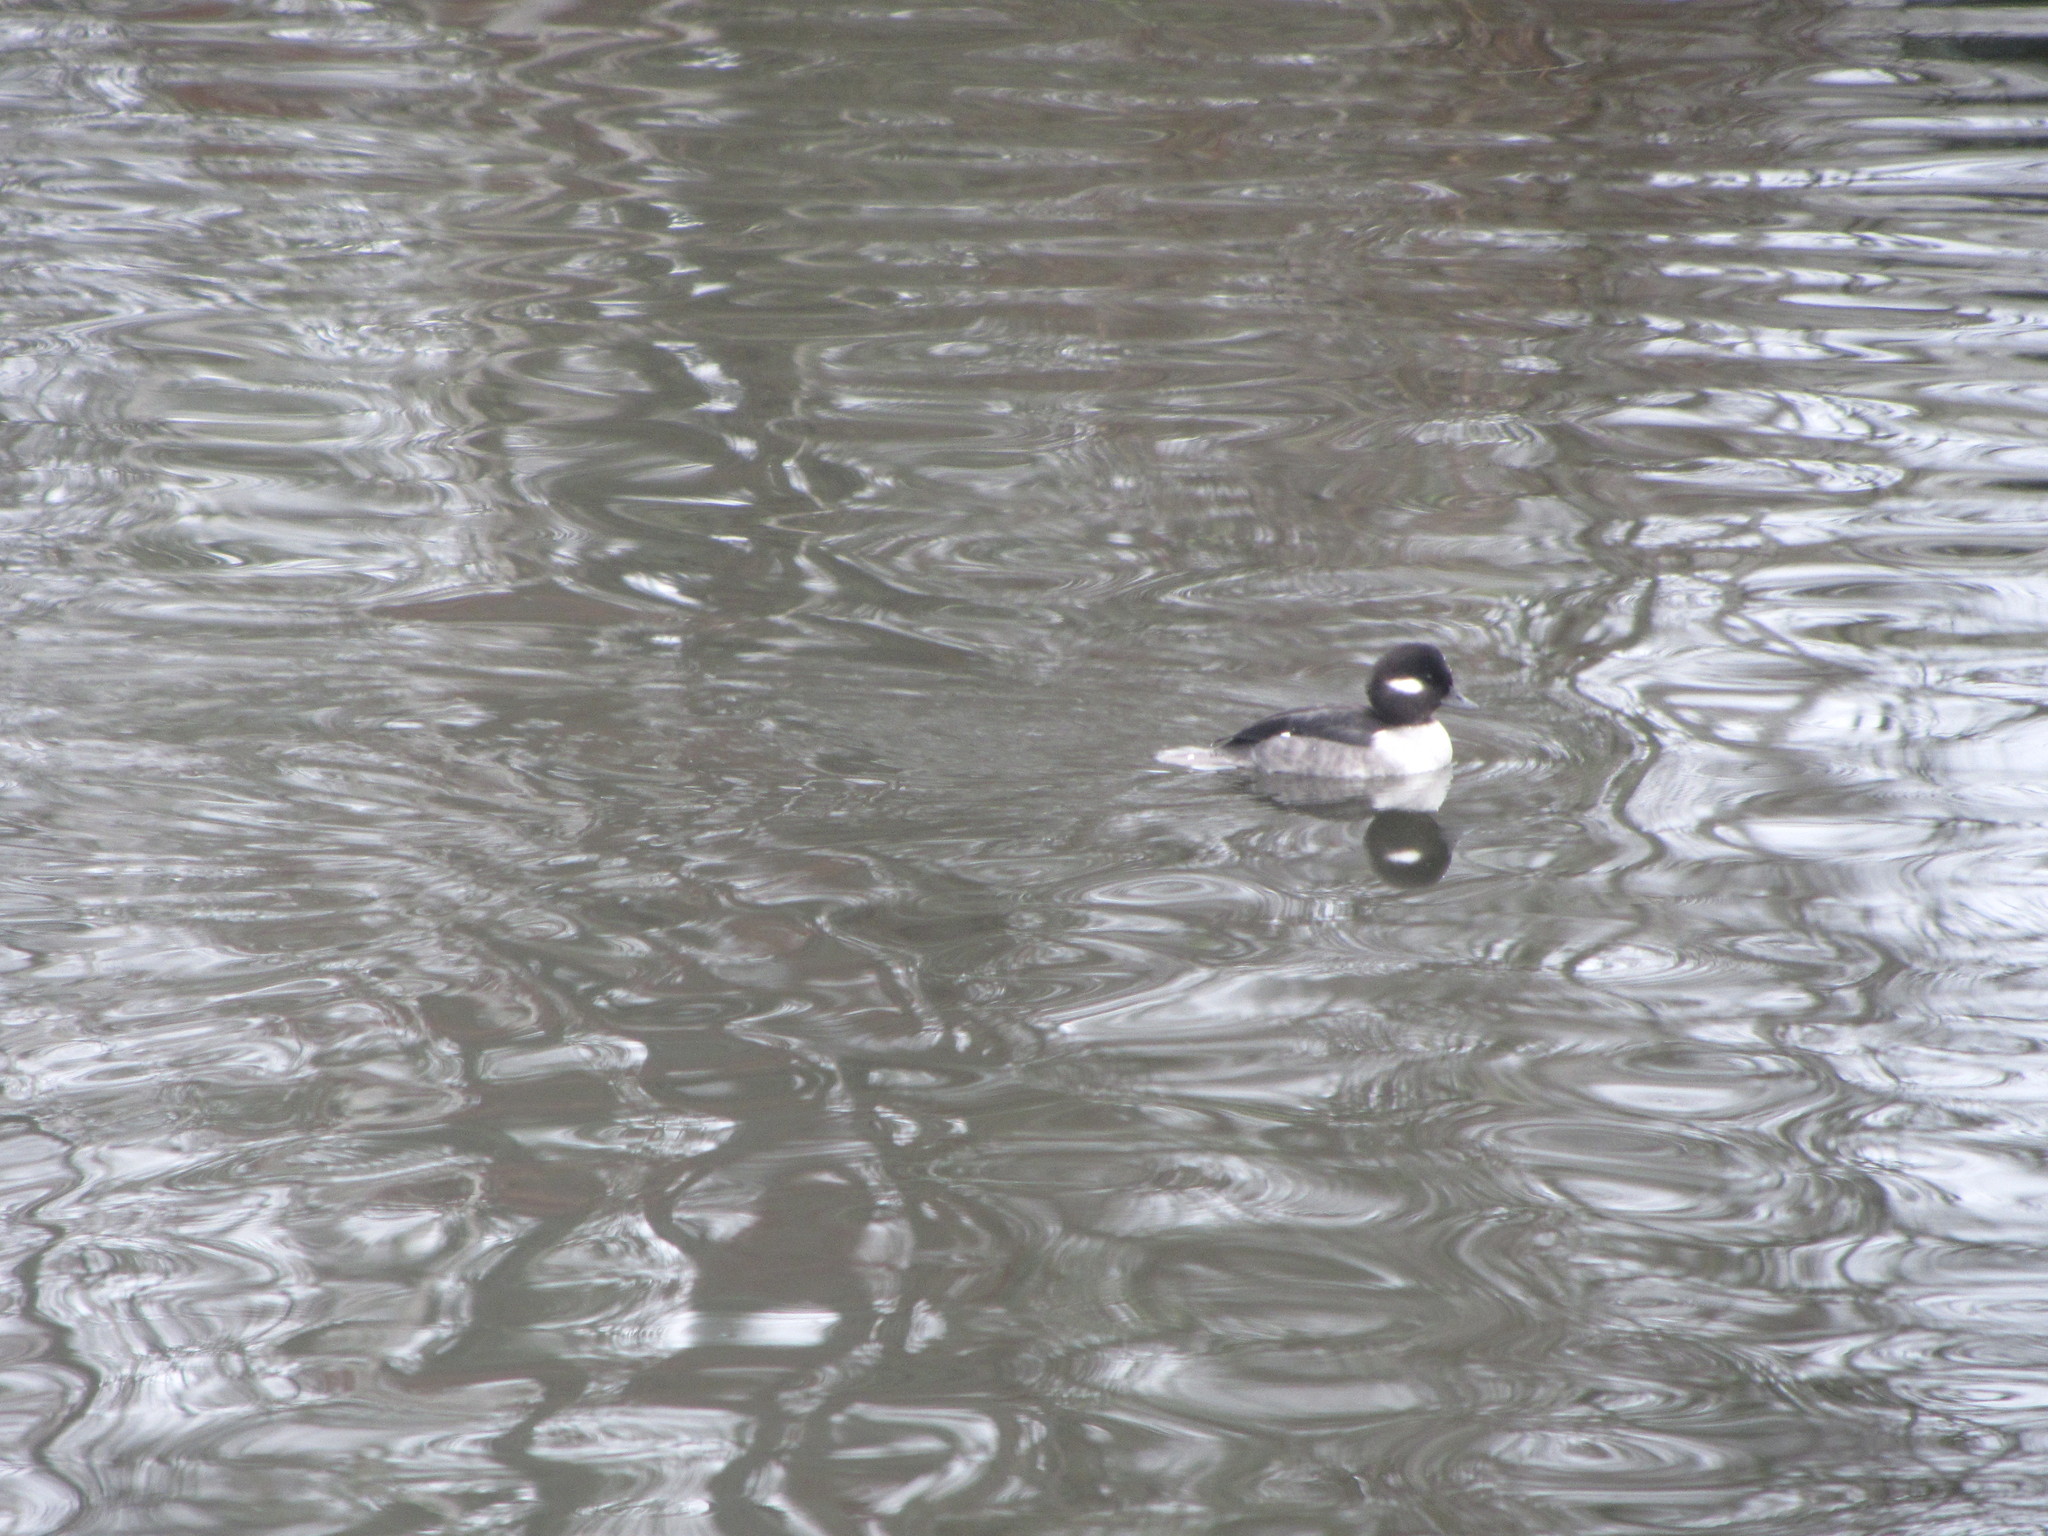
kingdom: Animalia
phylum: Chordata
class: Aves
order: Anseriformes
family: Anatidae
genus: Bucephala
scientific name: Bucephala albeola
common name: Bufflehead
